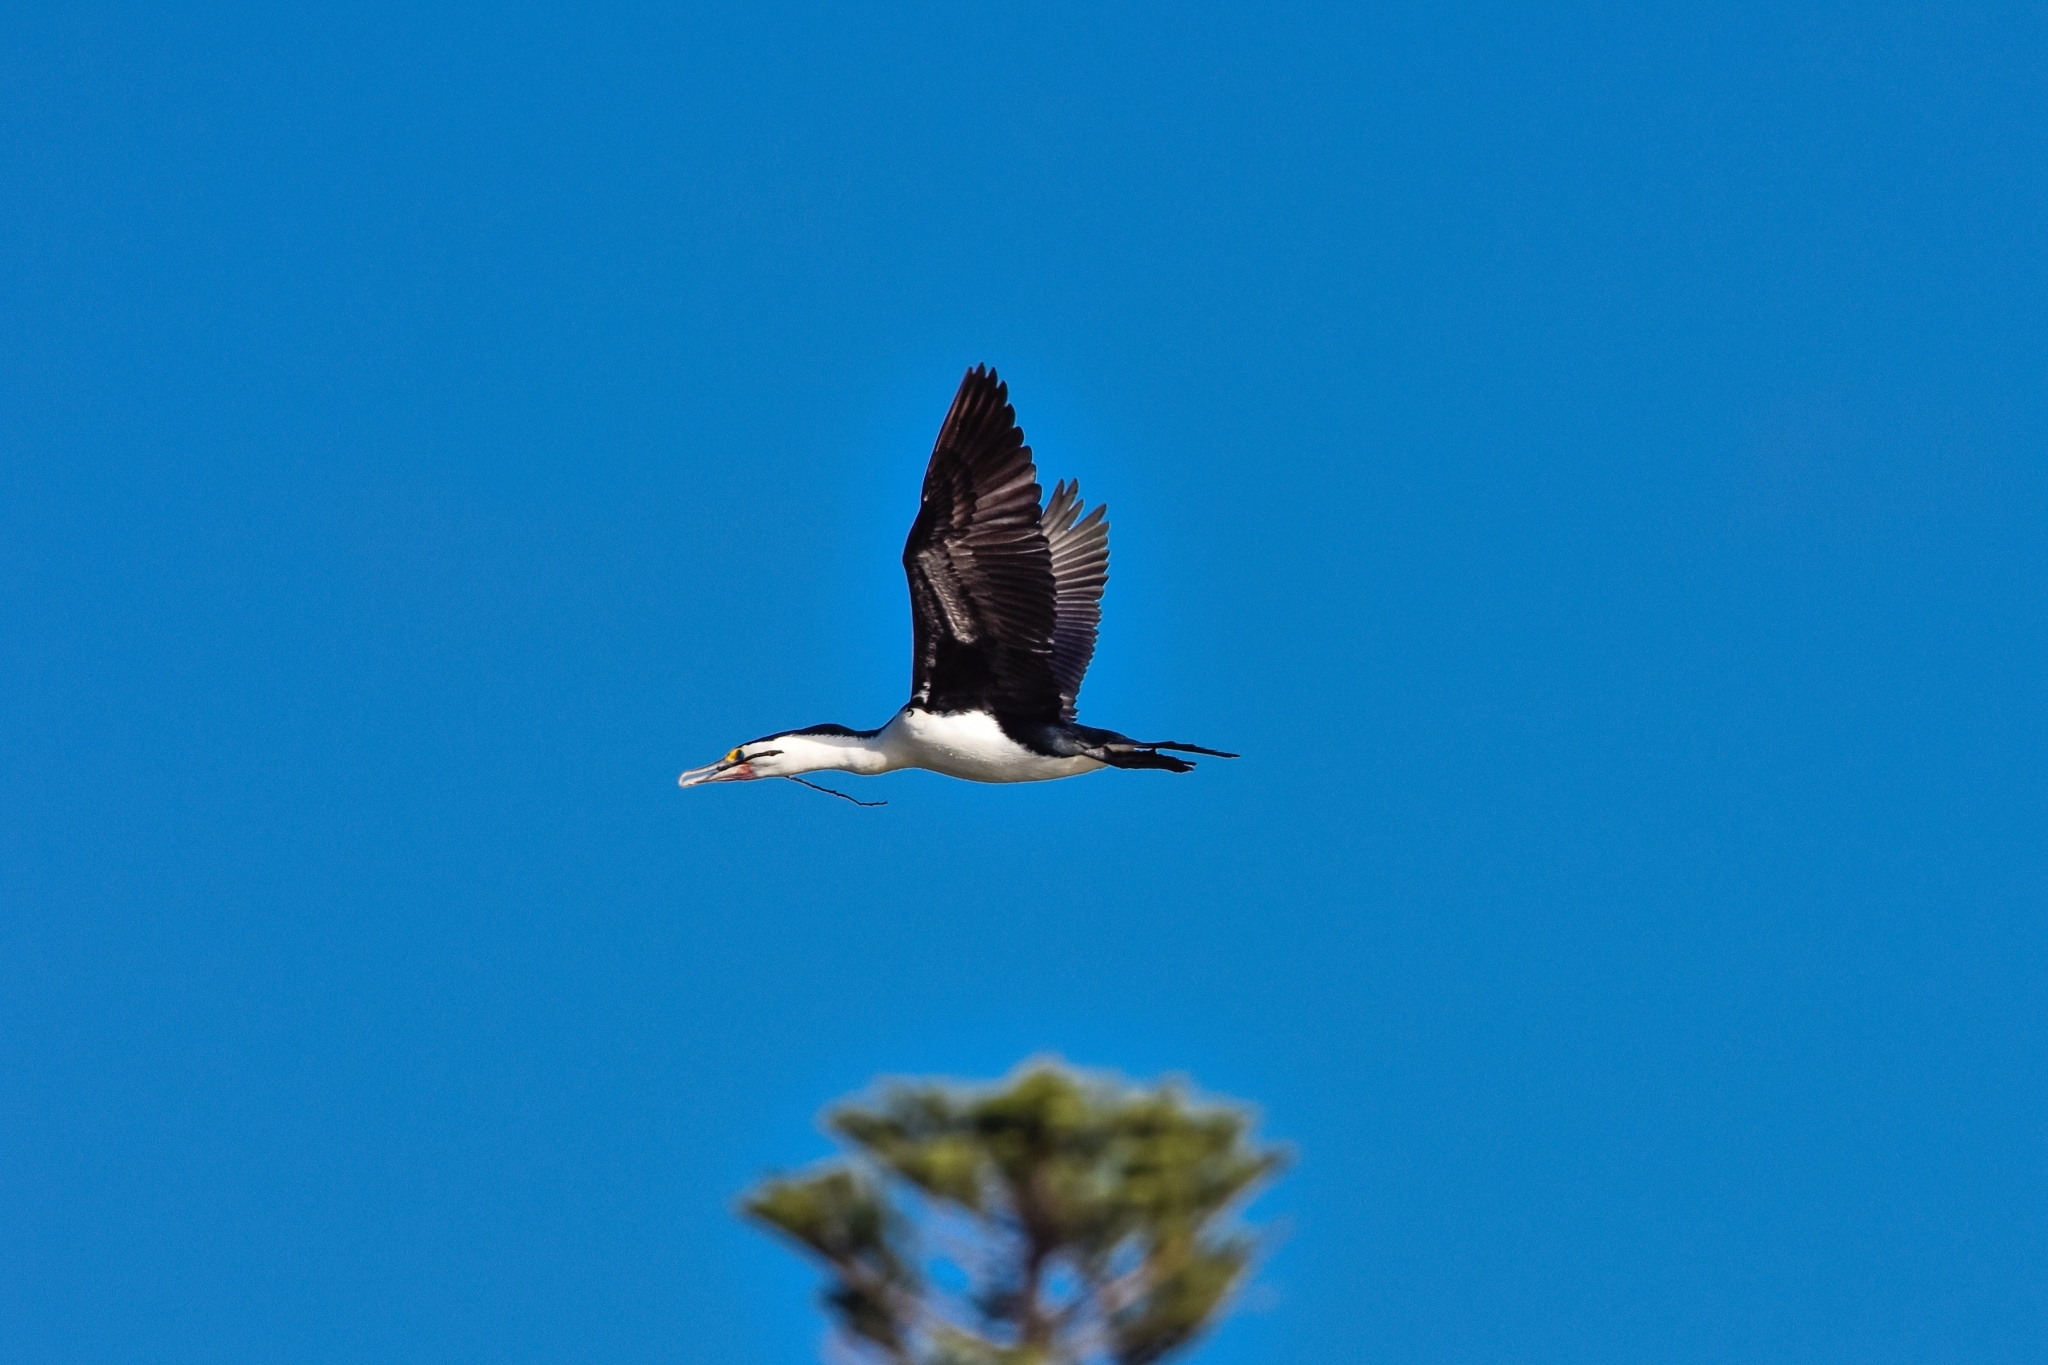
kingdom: Animalia
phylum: Chordata
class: Aves
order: Suliformes
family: Phalacrocoracidae
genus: Phalacrocorax
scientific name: Phalacrocorax varius
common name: Pied cormorant
